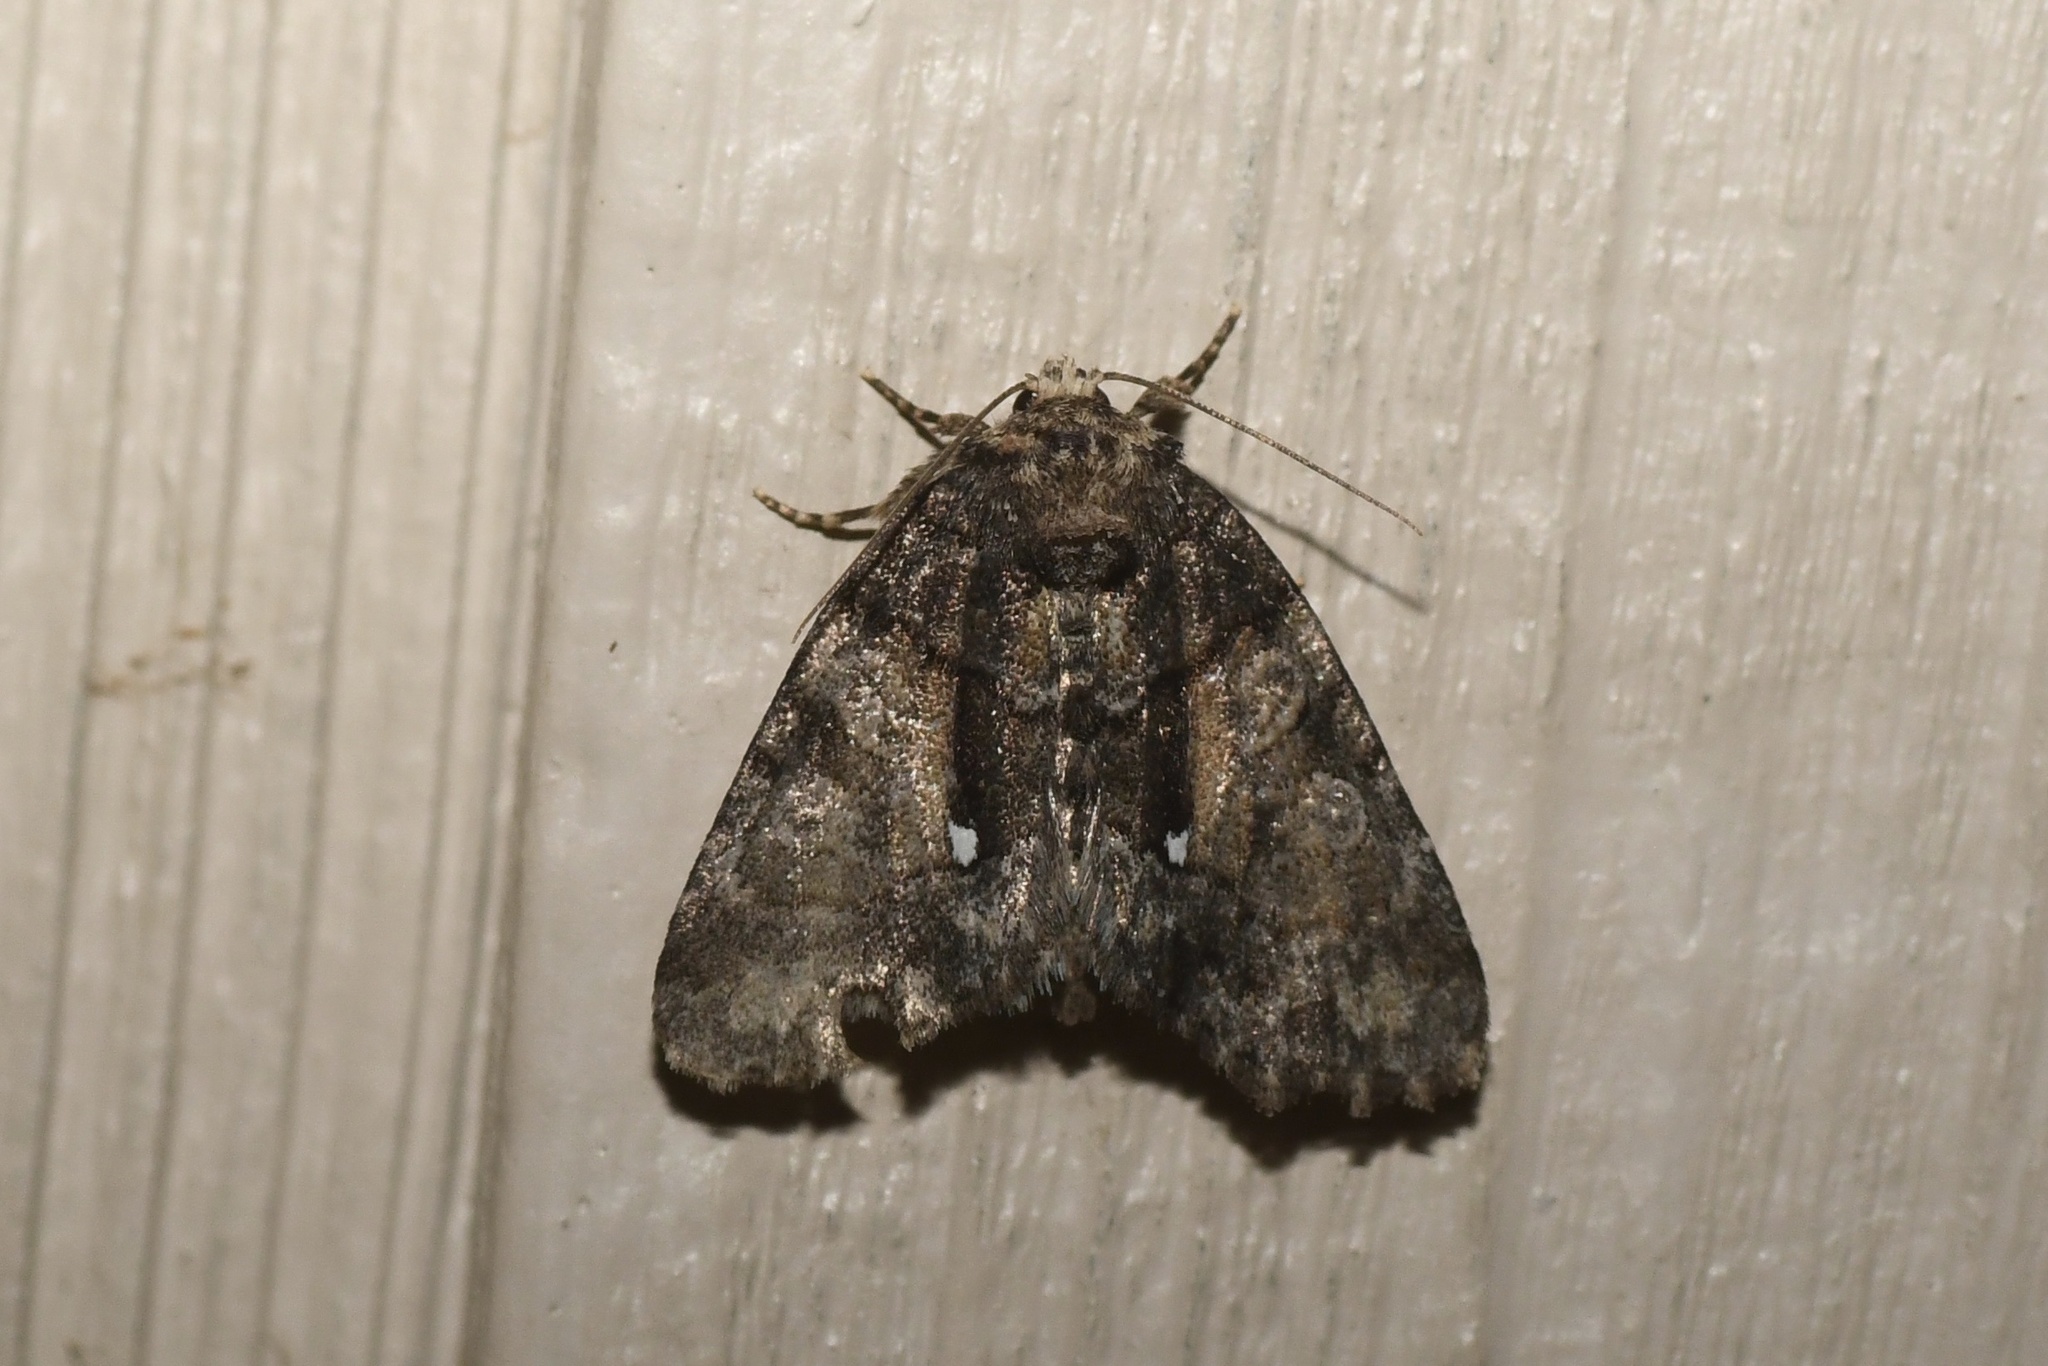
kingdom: Animalia
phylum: Arthropoda
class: Insecta
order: Lepidoptera
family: Noctuidae
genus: Chytonix
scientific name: Chytonix palliatricula
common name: Cloaked marvel
